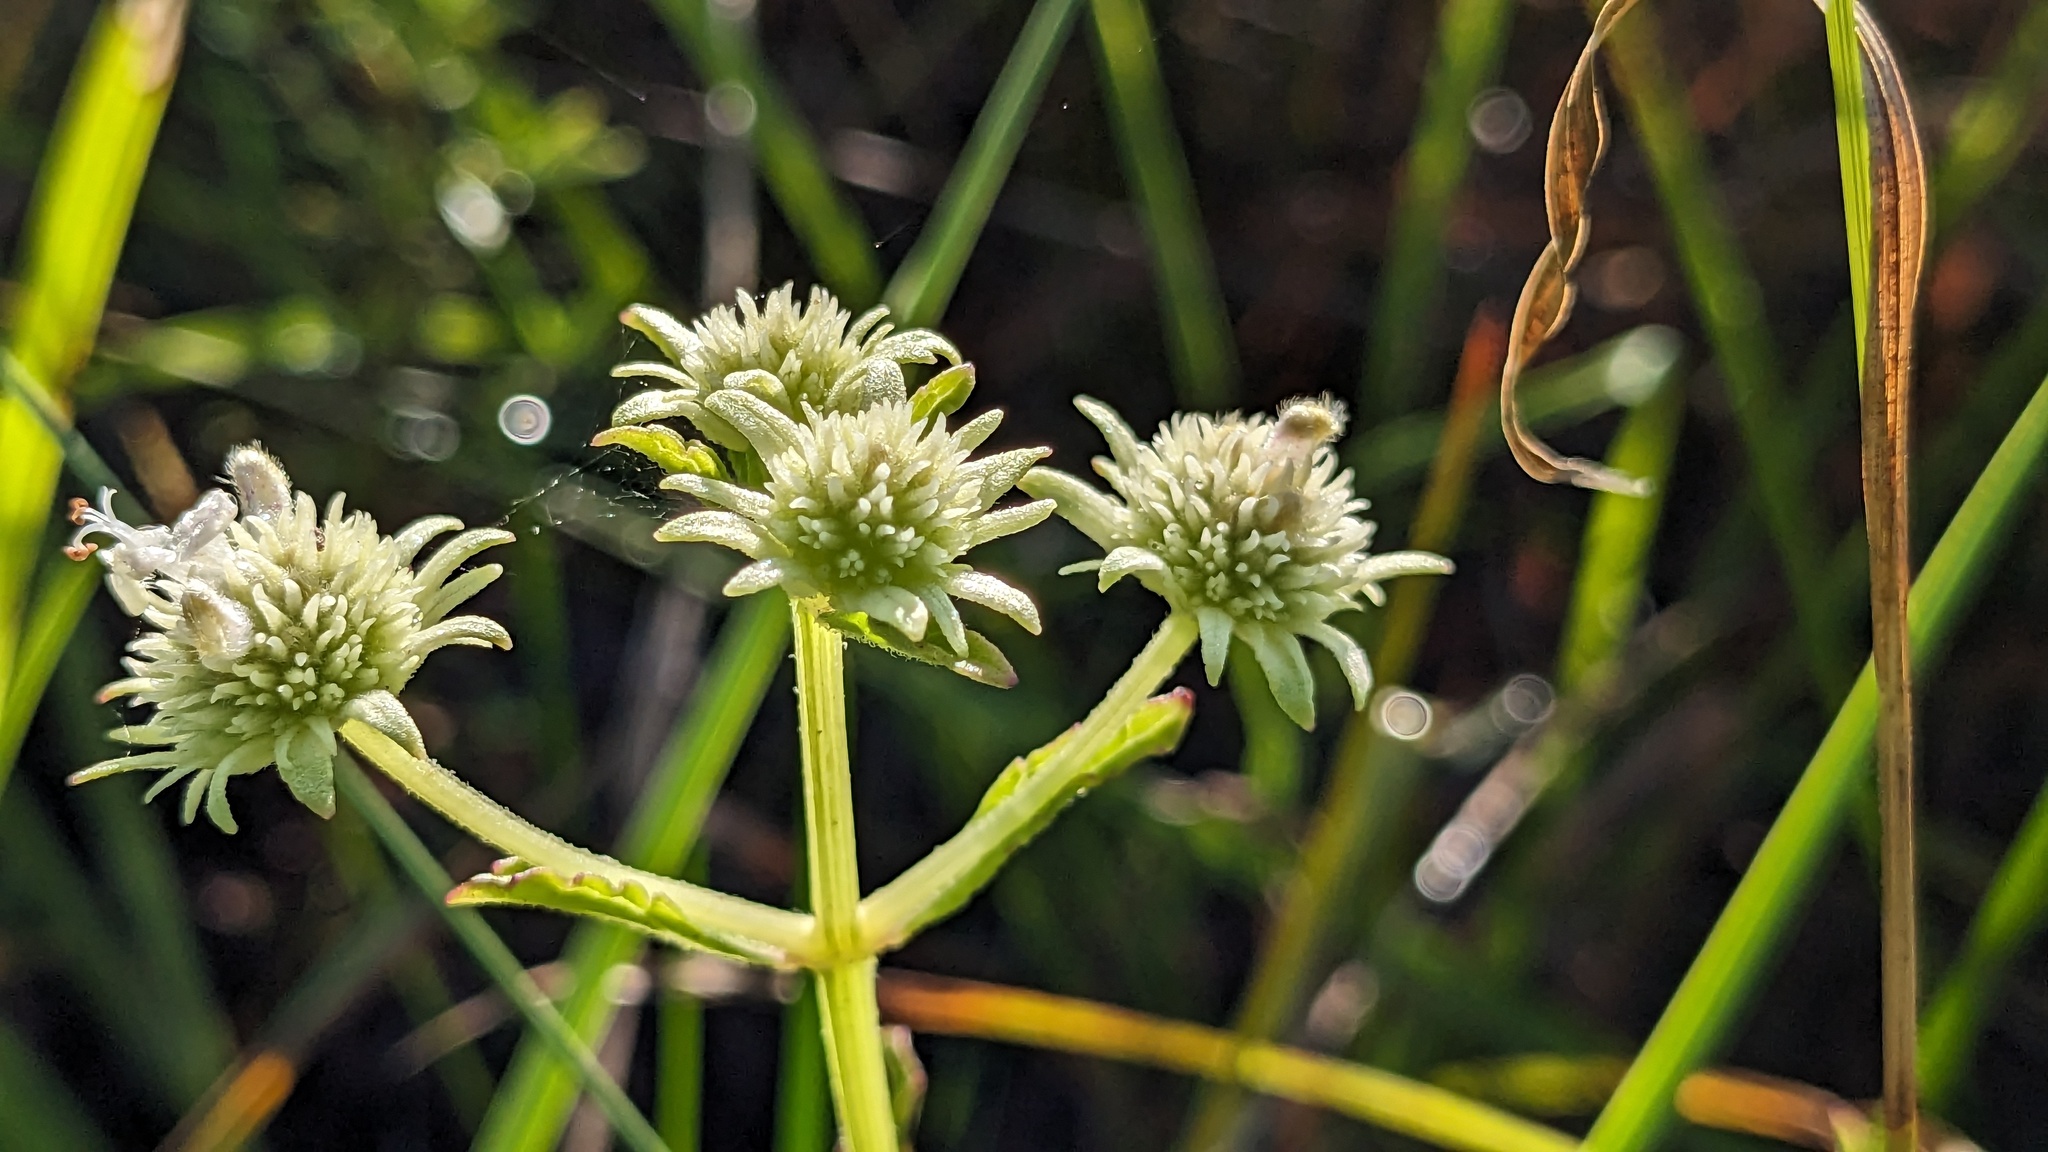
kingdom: Plantae
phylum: Tracheophyta
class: Magnoliopsida
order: Lamiales
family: Lamiaceae
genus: Hyptis
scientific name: Hyptis alata
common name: Cluster bush-mint
